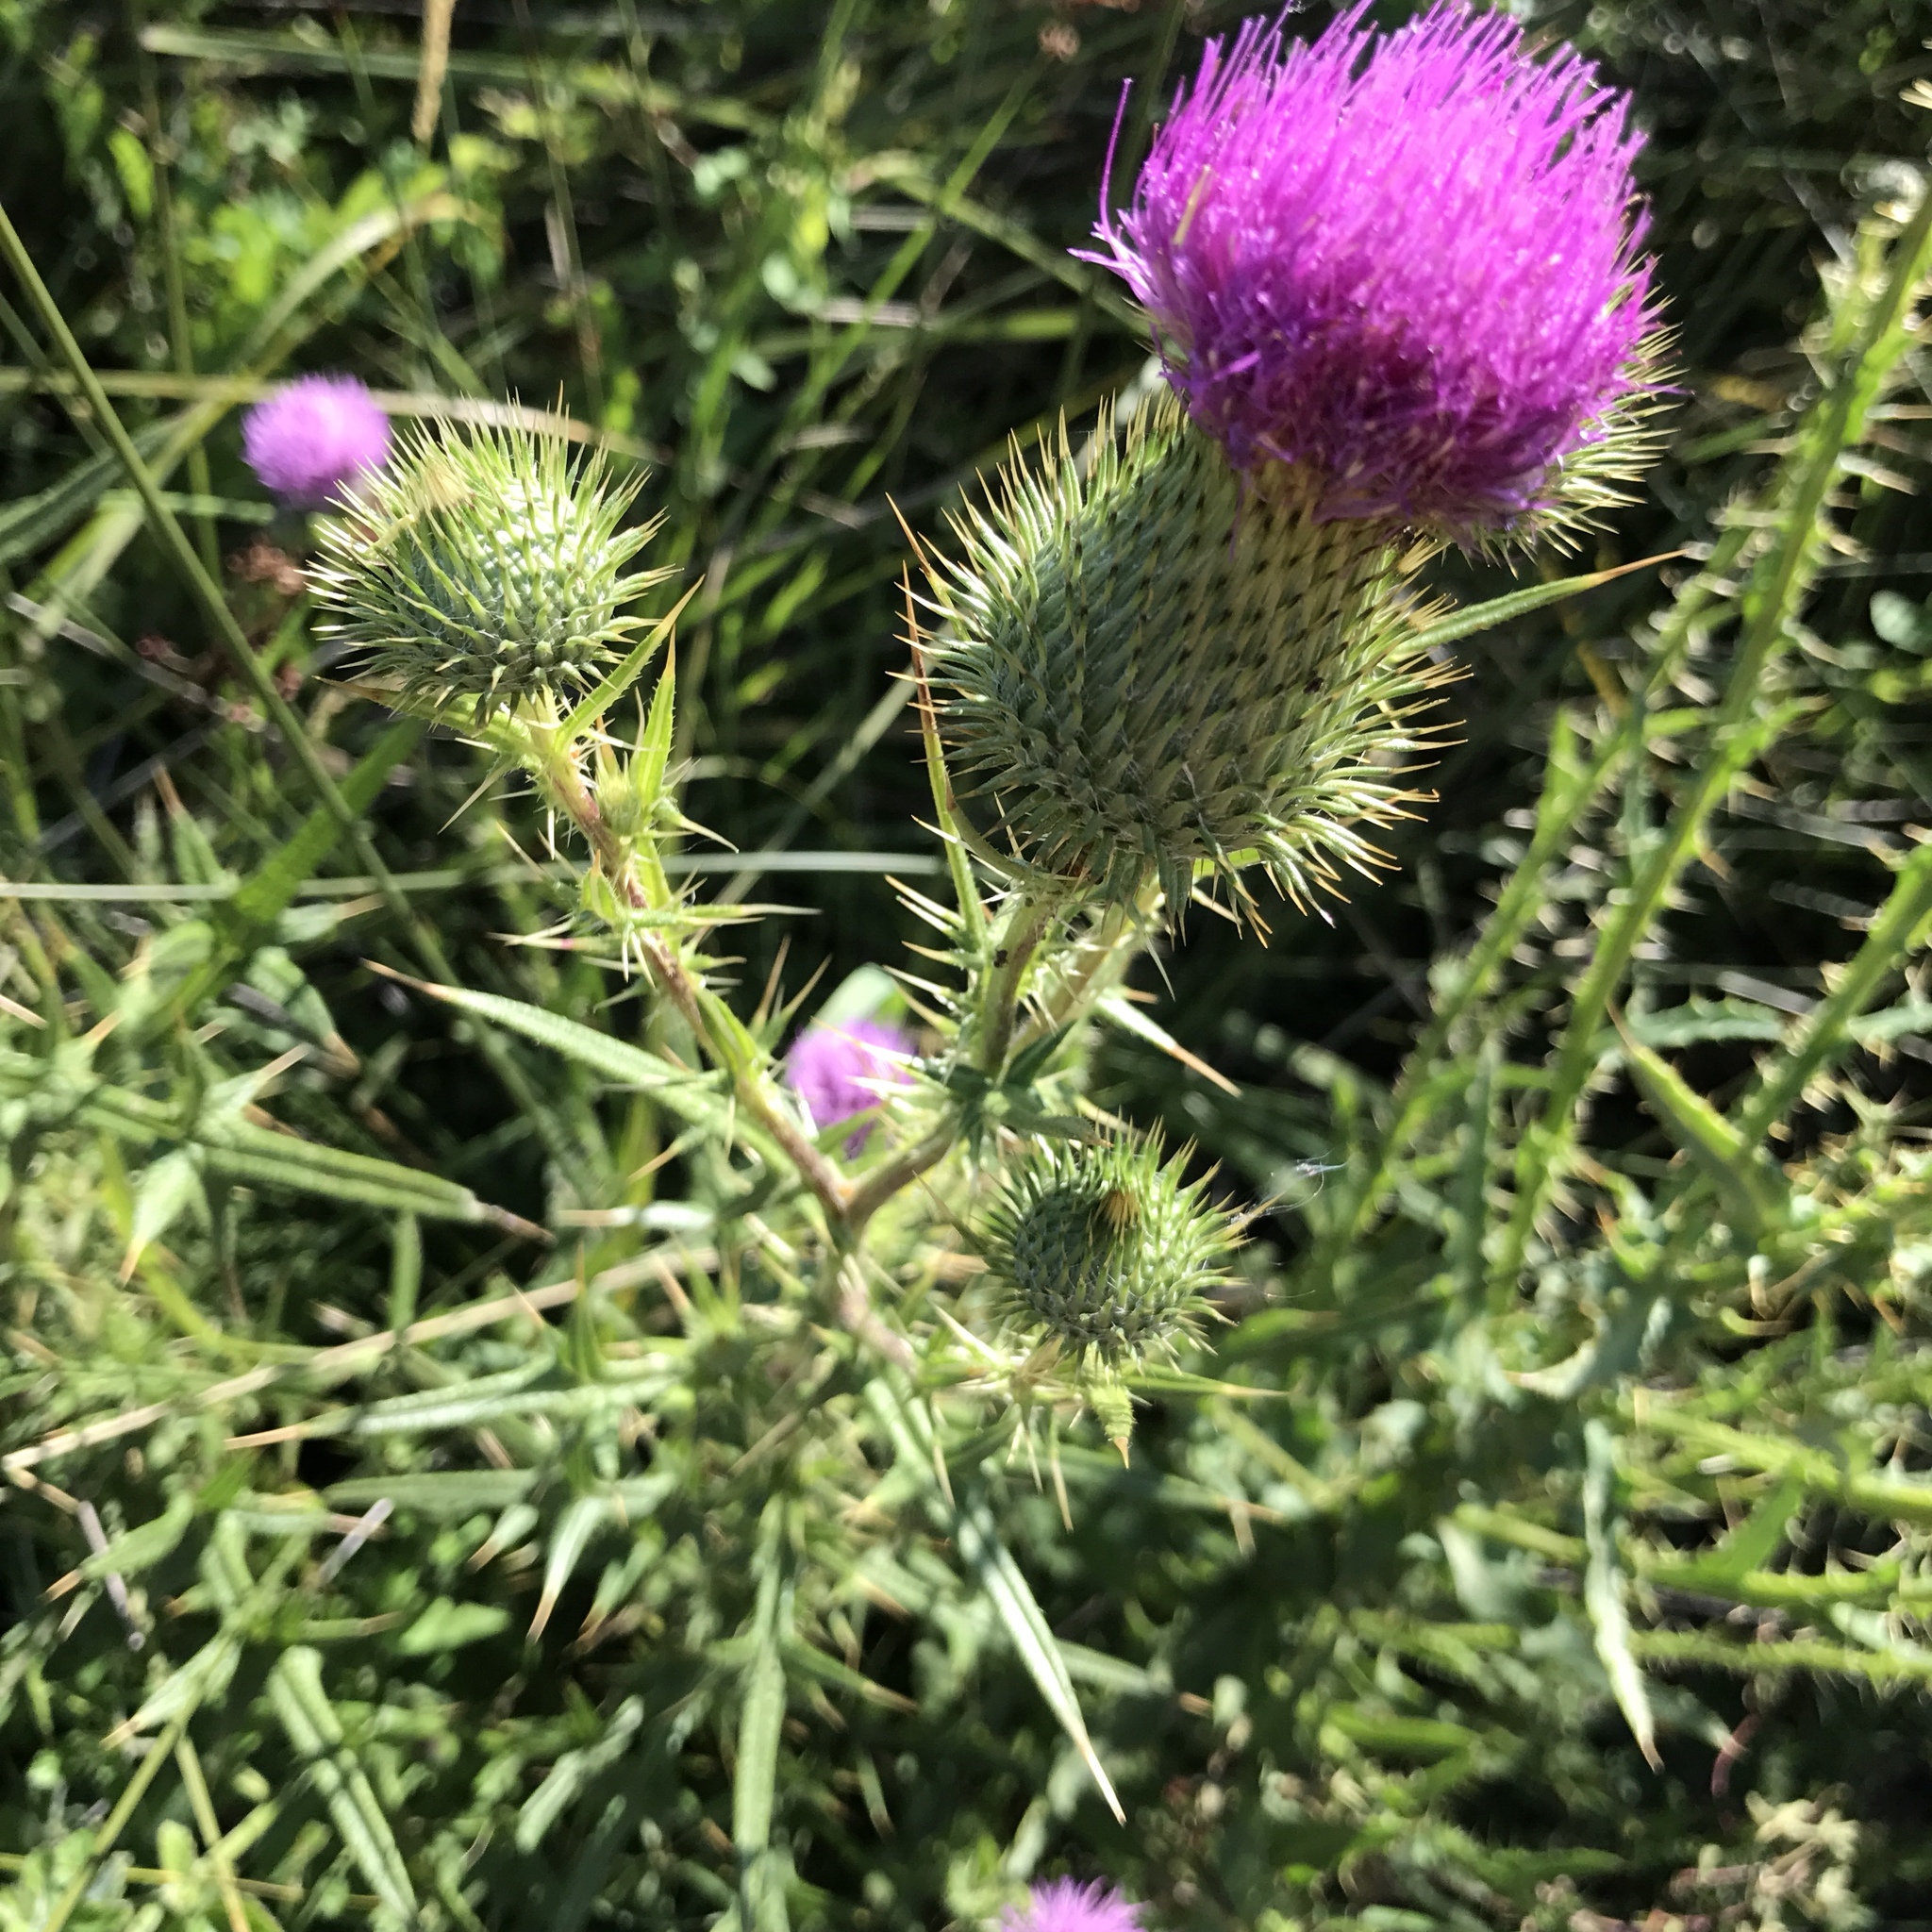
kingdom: Plantae
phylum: Tracheophyta
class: Magnoliopsida
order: Asterales
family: Asteraceae
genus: Cirsium
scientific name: Cirsium vulgare
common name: Bull thistle
